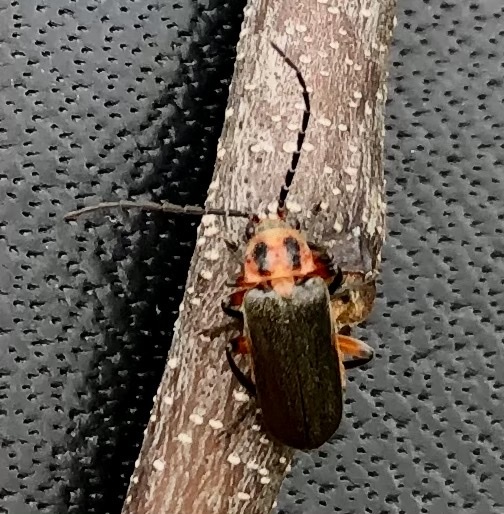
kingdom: Animalia
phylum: Arthropoda
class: Insecta
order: Coleoptera
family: Cantharidae
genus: Atalantycha
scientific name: Atalantycha bilineata
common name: Two-lined leatherwing
